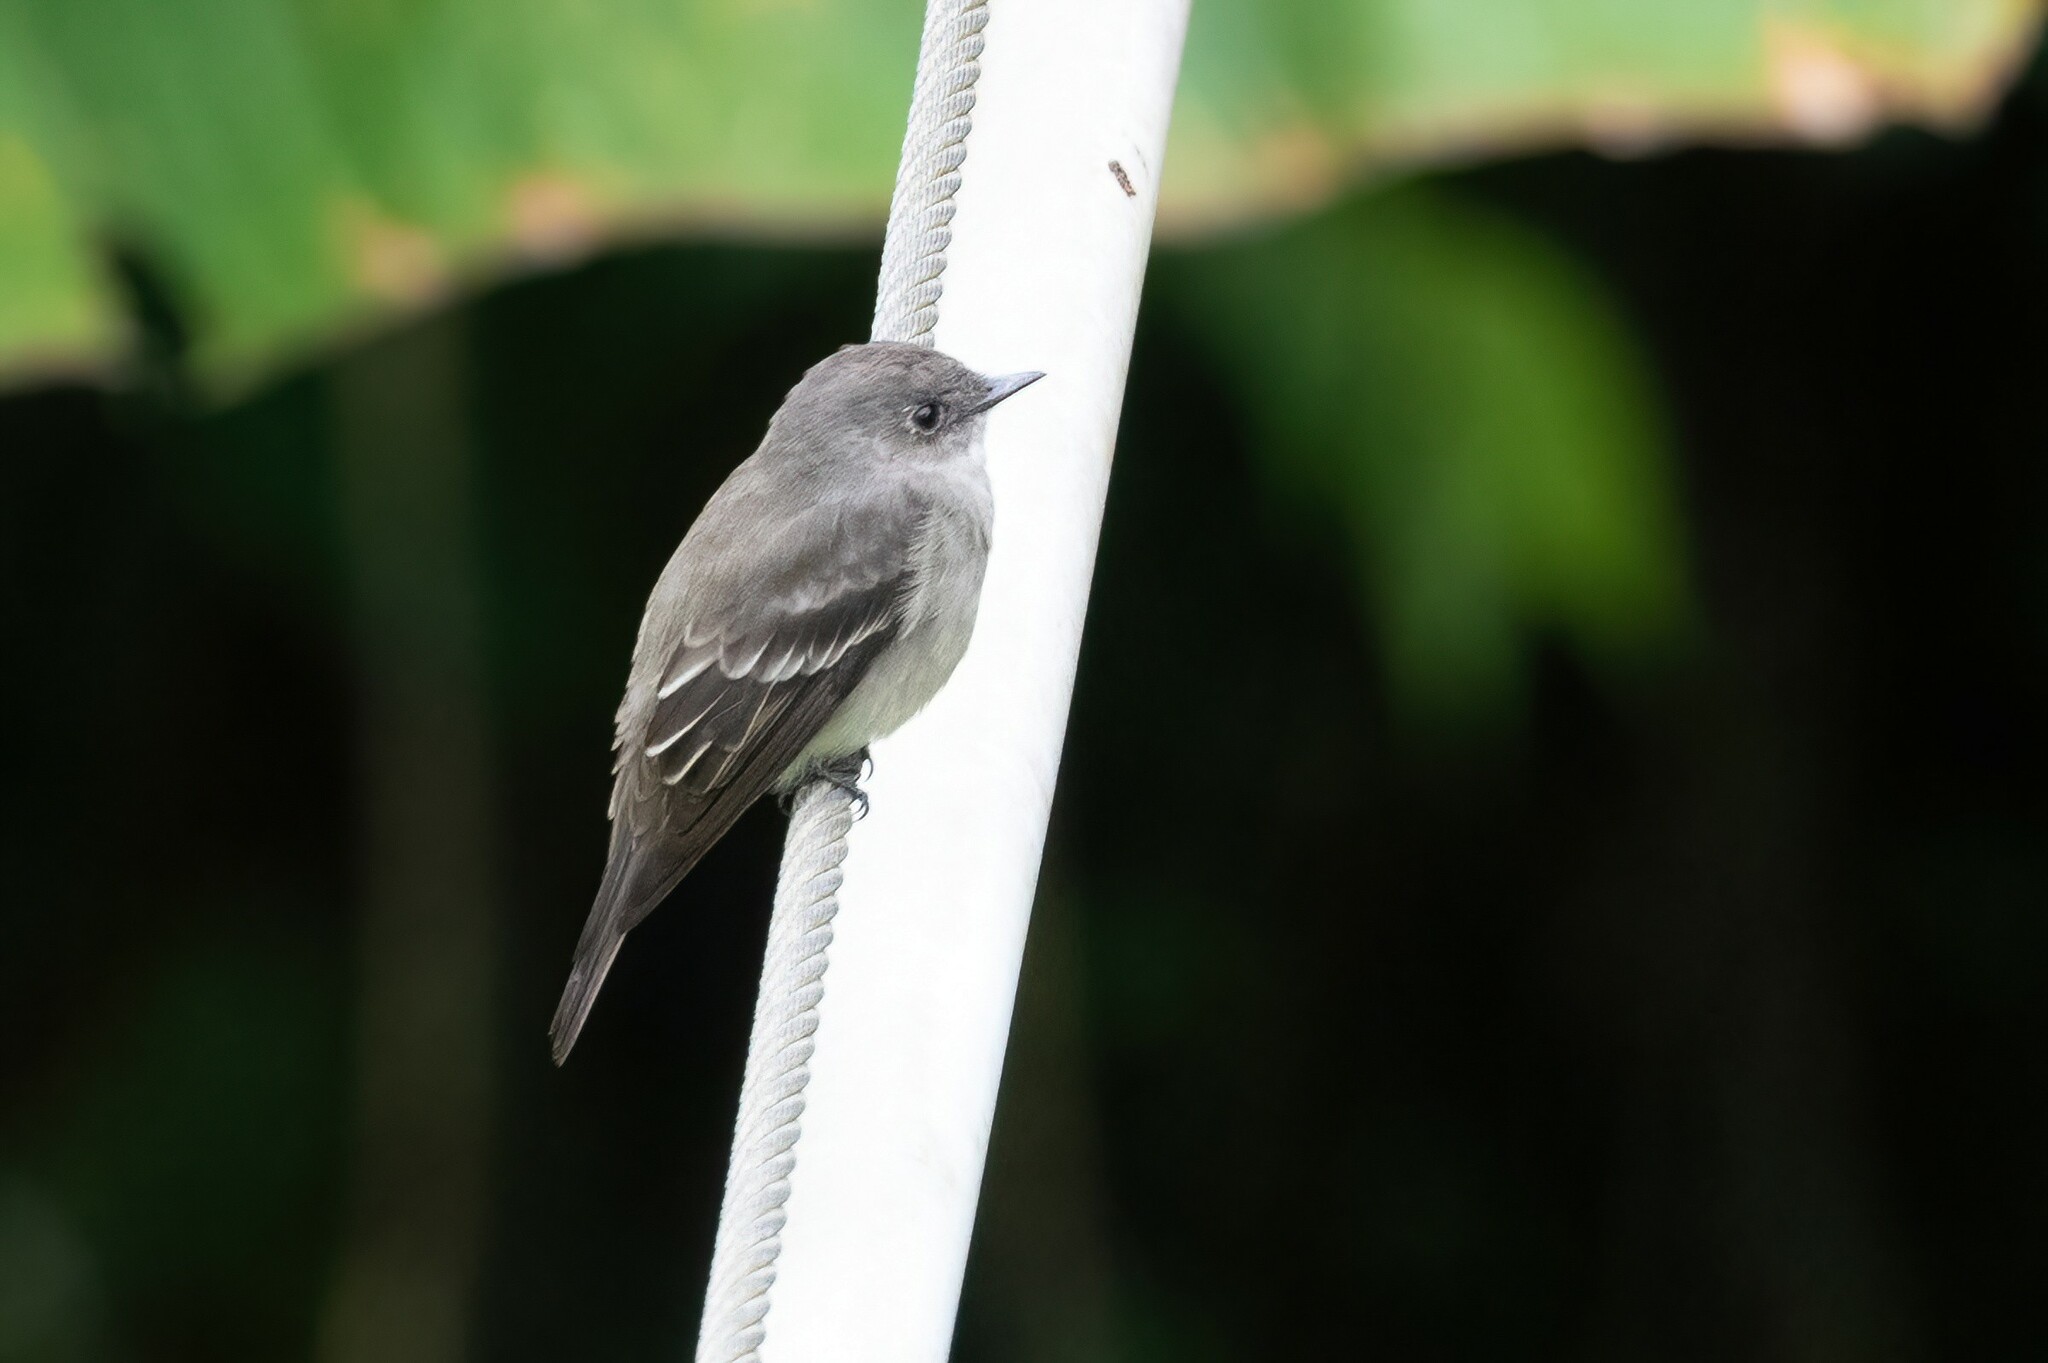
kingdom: Animalia
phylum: Chordata
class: Aves
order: Passeriformes
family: Tyrannidae
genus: Contopus
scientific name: Contopus sordidulus
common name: Western wood-pewee
